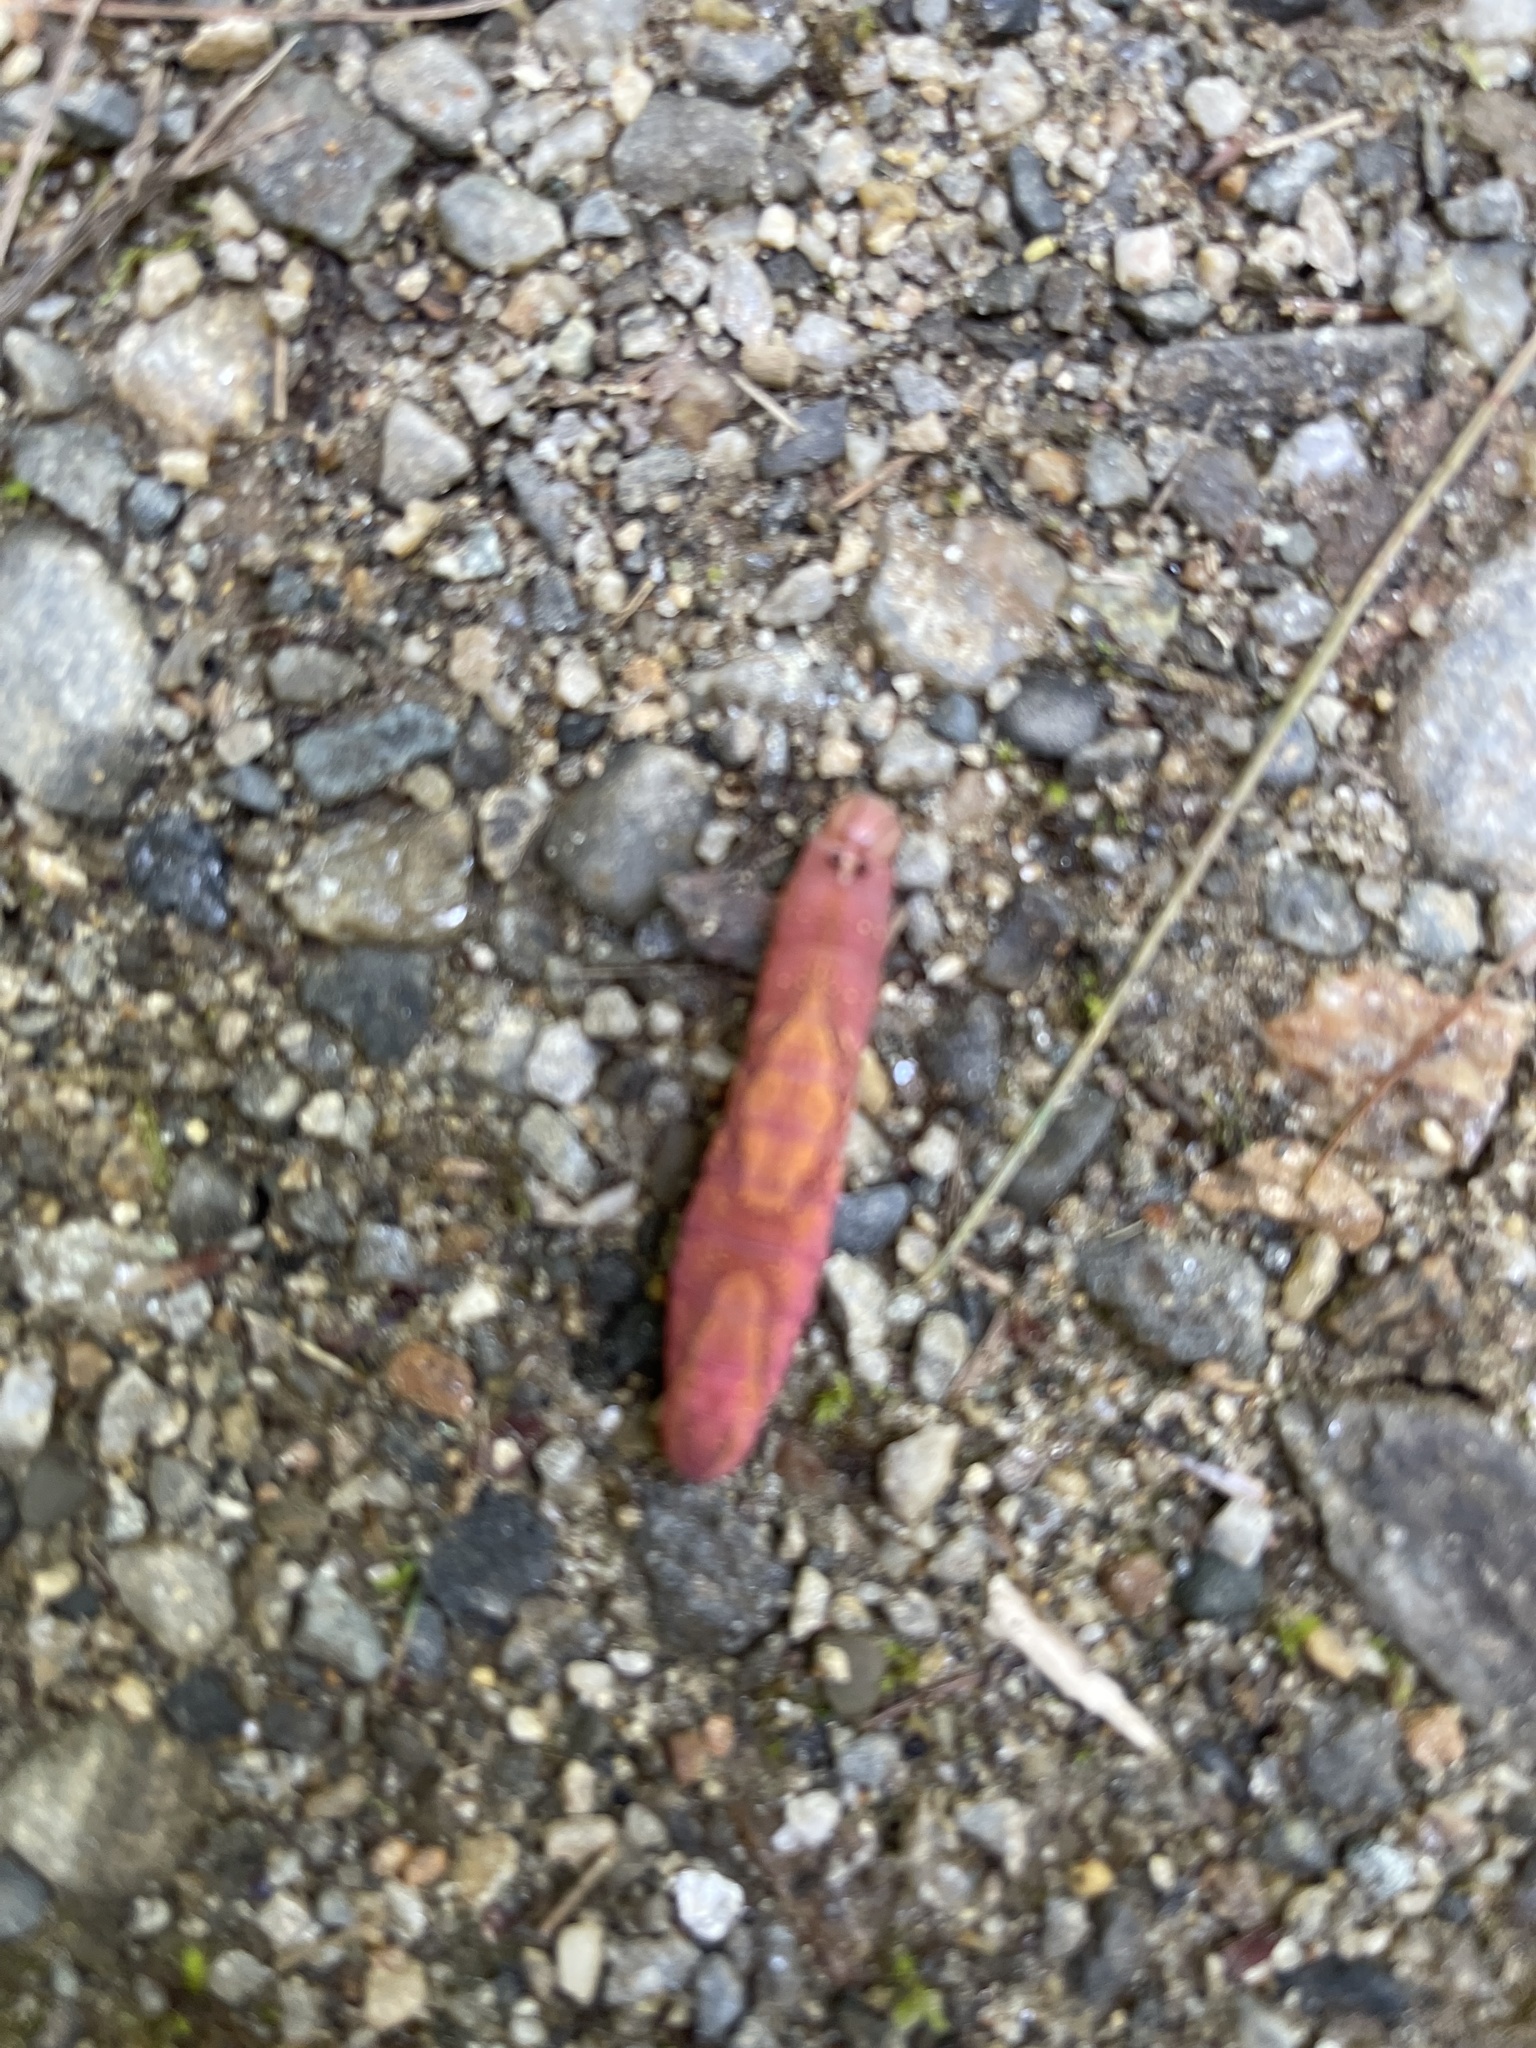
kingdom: Animalia
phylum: Arthropoda
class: Insecta
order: Lepidoptera
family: Notodontidae
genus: Heterocampa
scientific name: Heterocampa
